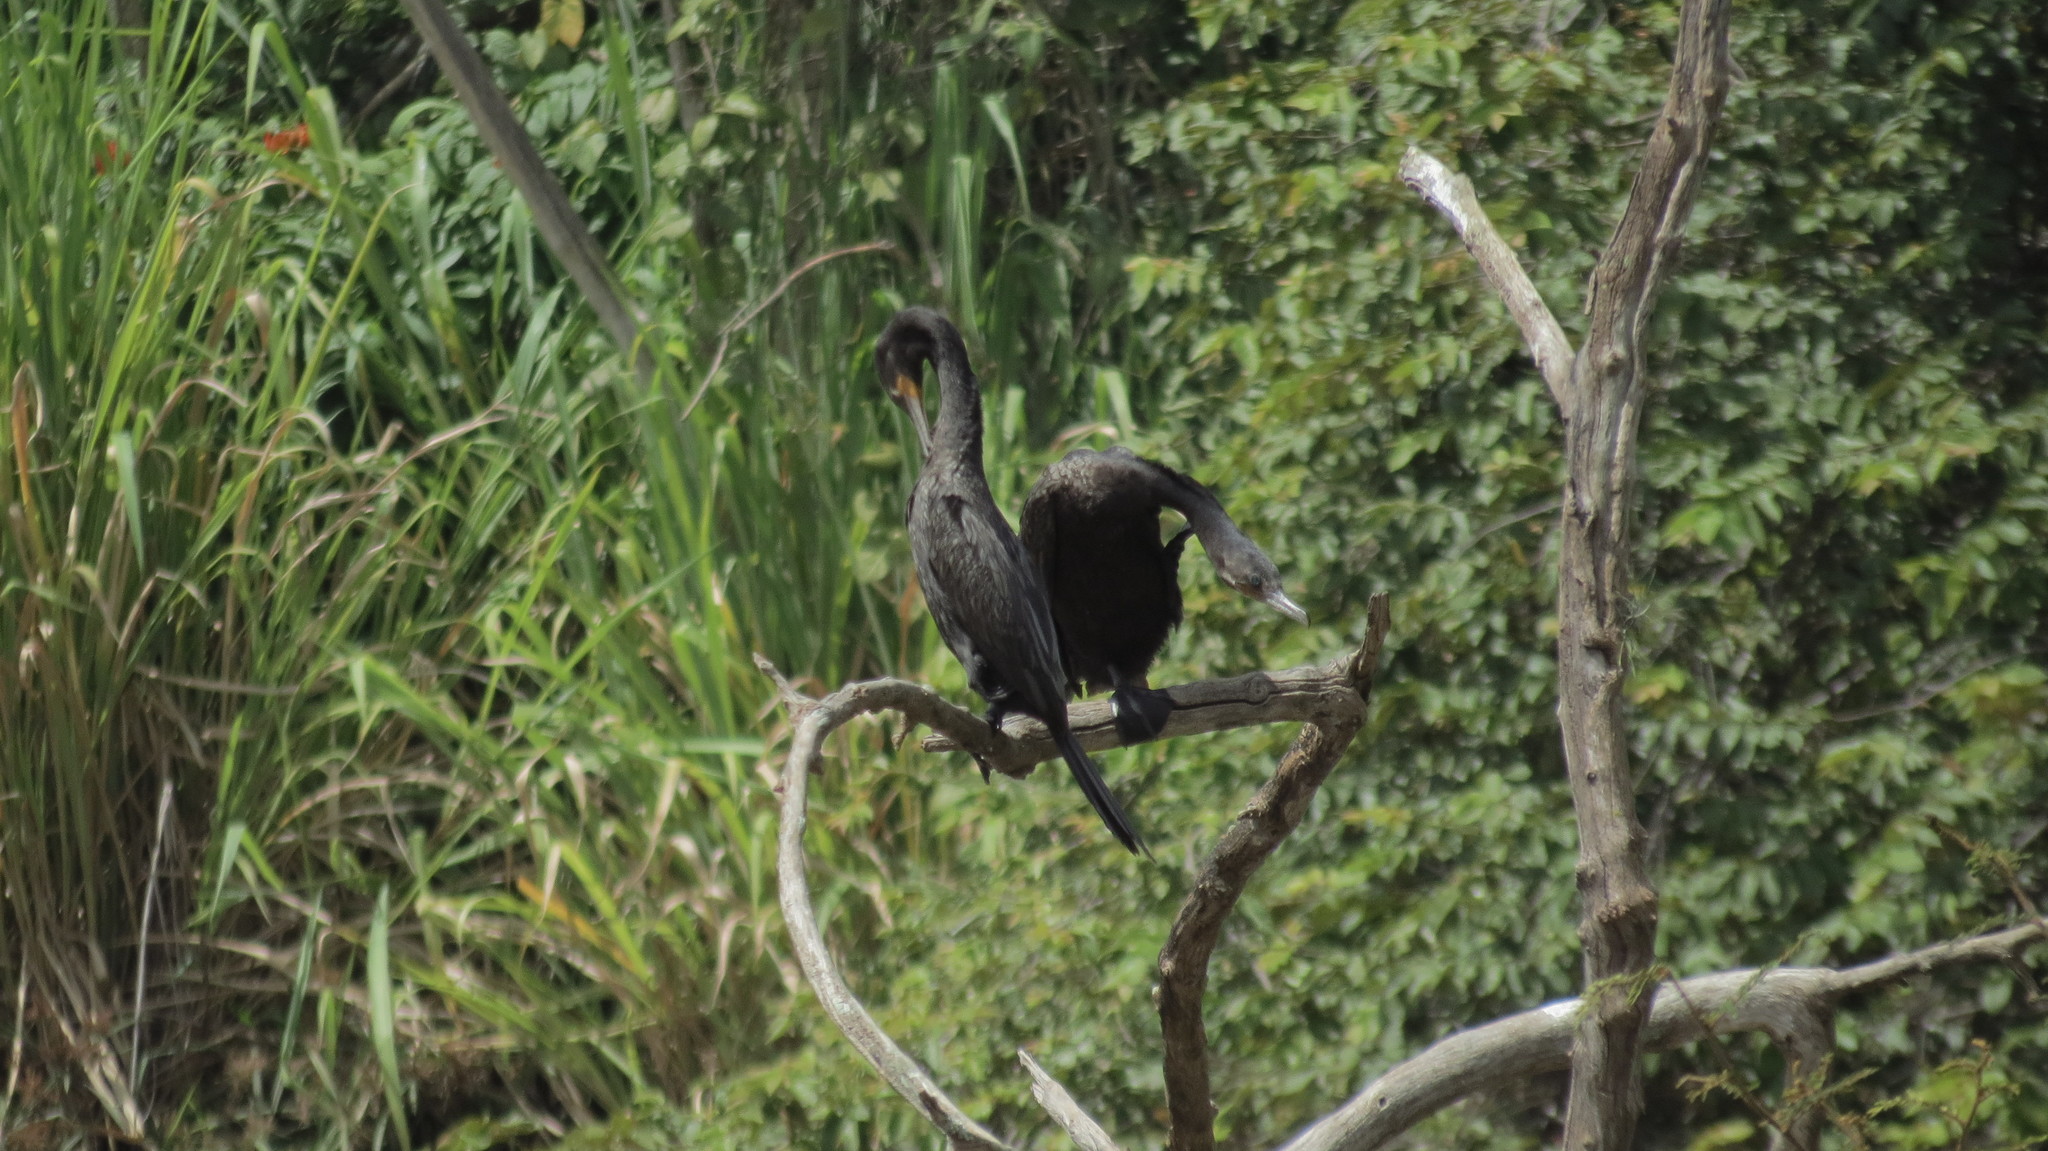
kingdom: Animalia
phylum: Chordata
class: Aves
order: Suliformes
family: Phalacrocoracidae
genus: Phalacrocorax
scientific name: Phalacrocorax brasilianus
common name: Neotropic cormorant
